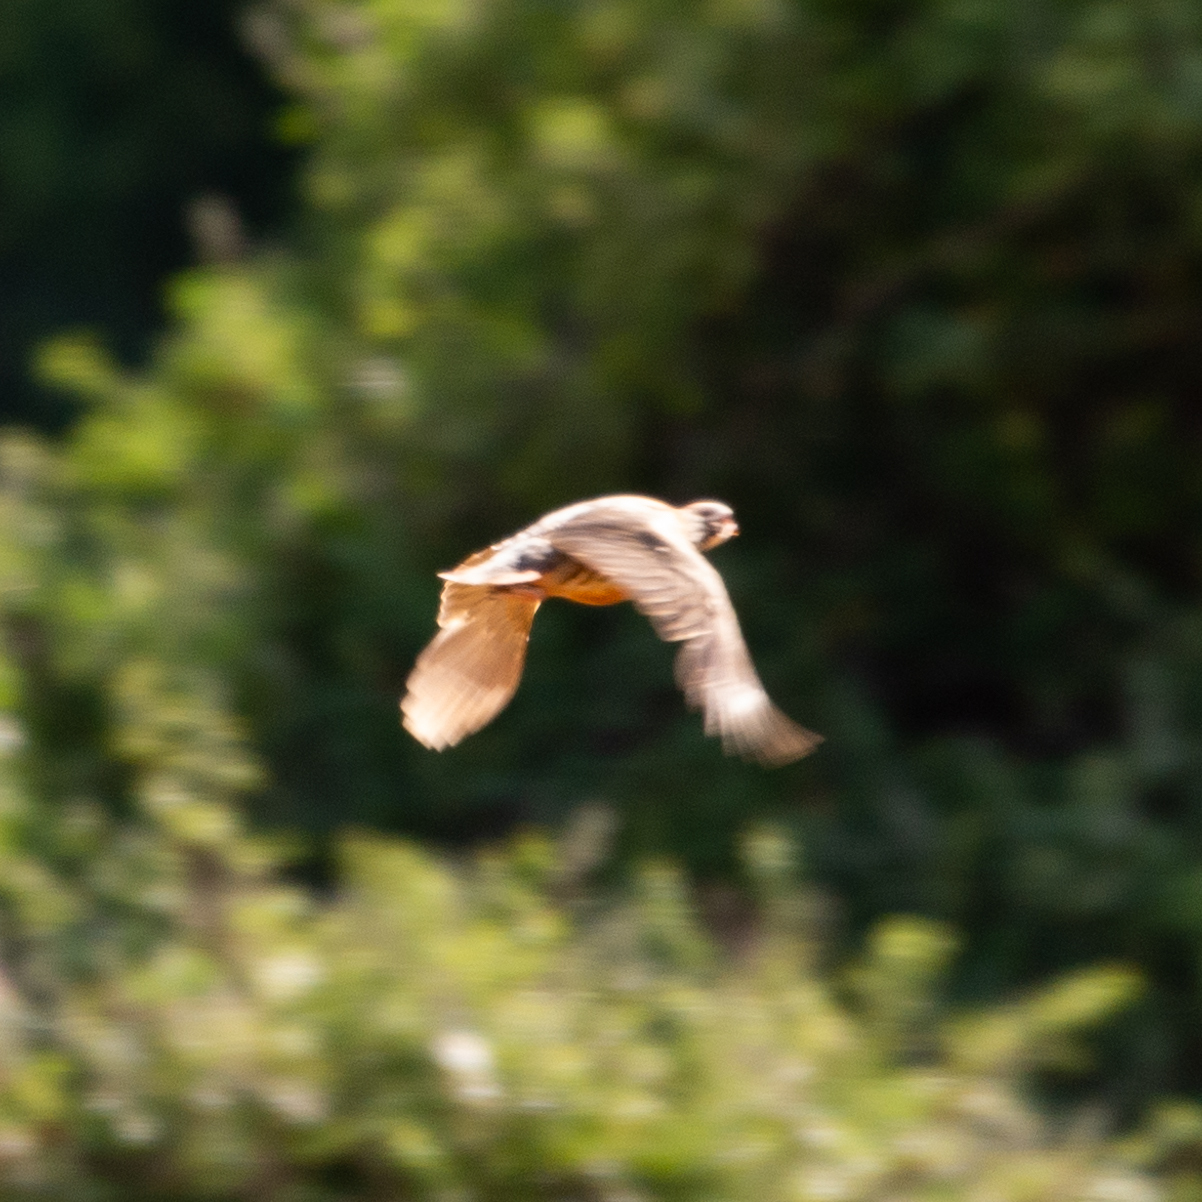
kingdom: Animalia
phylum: Chordata
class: Aves
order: Galliformes
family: Phasianidae
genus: Alectoris
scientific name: Alectoris rufa
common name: Red-legged partridge
